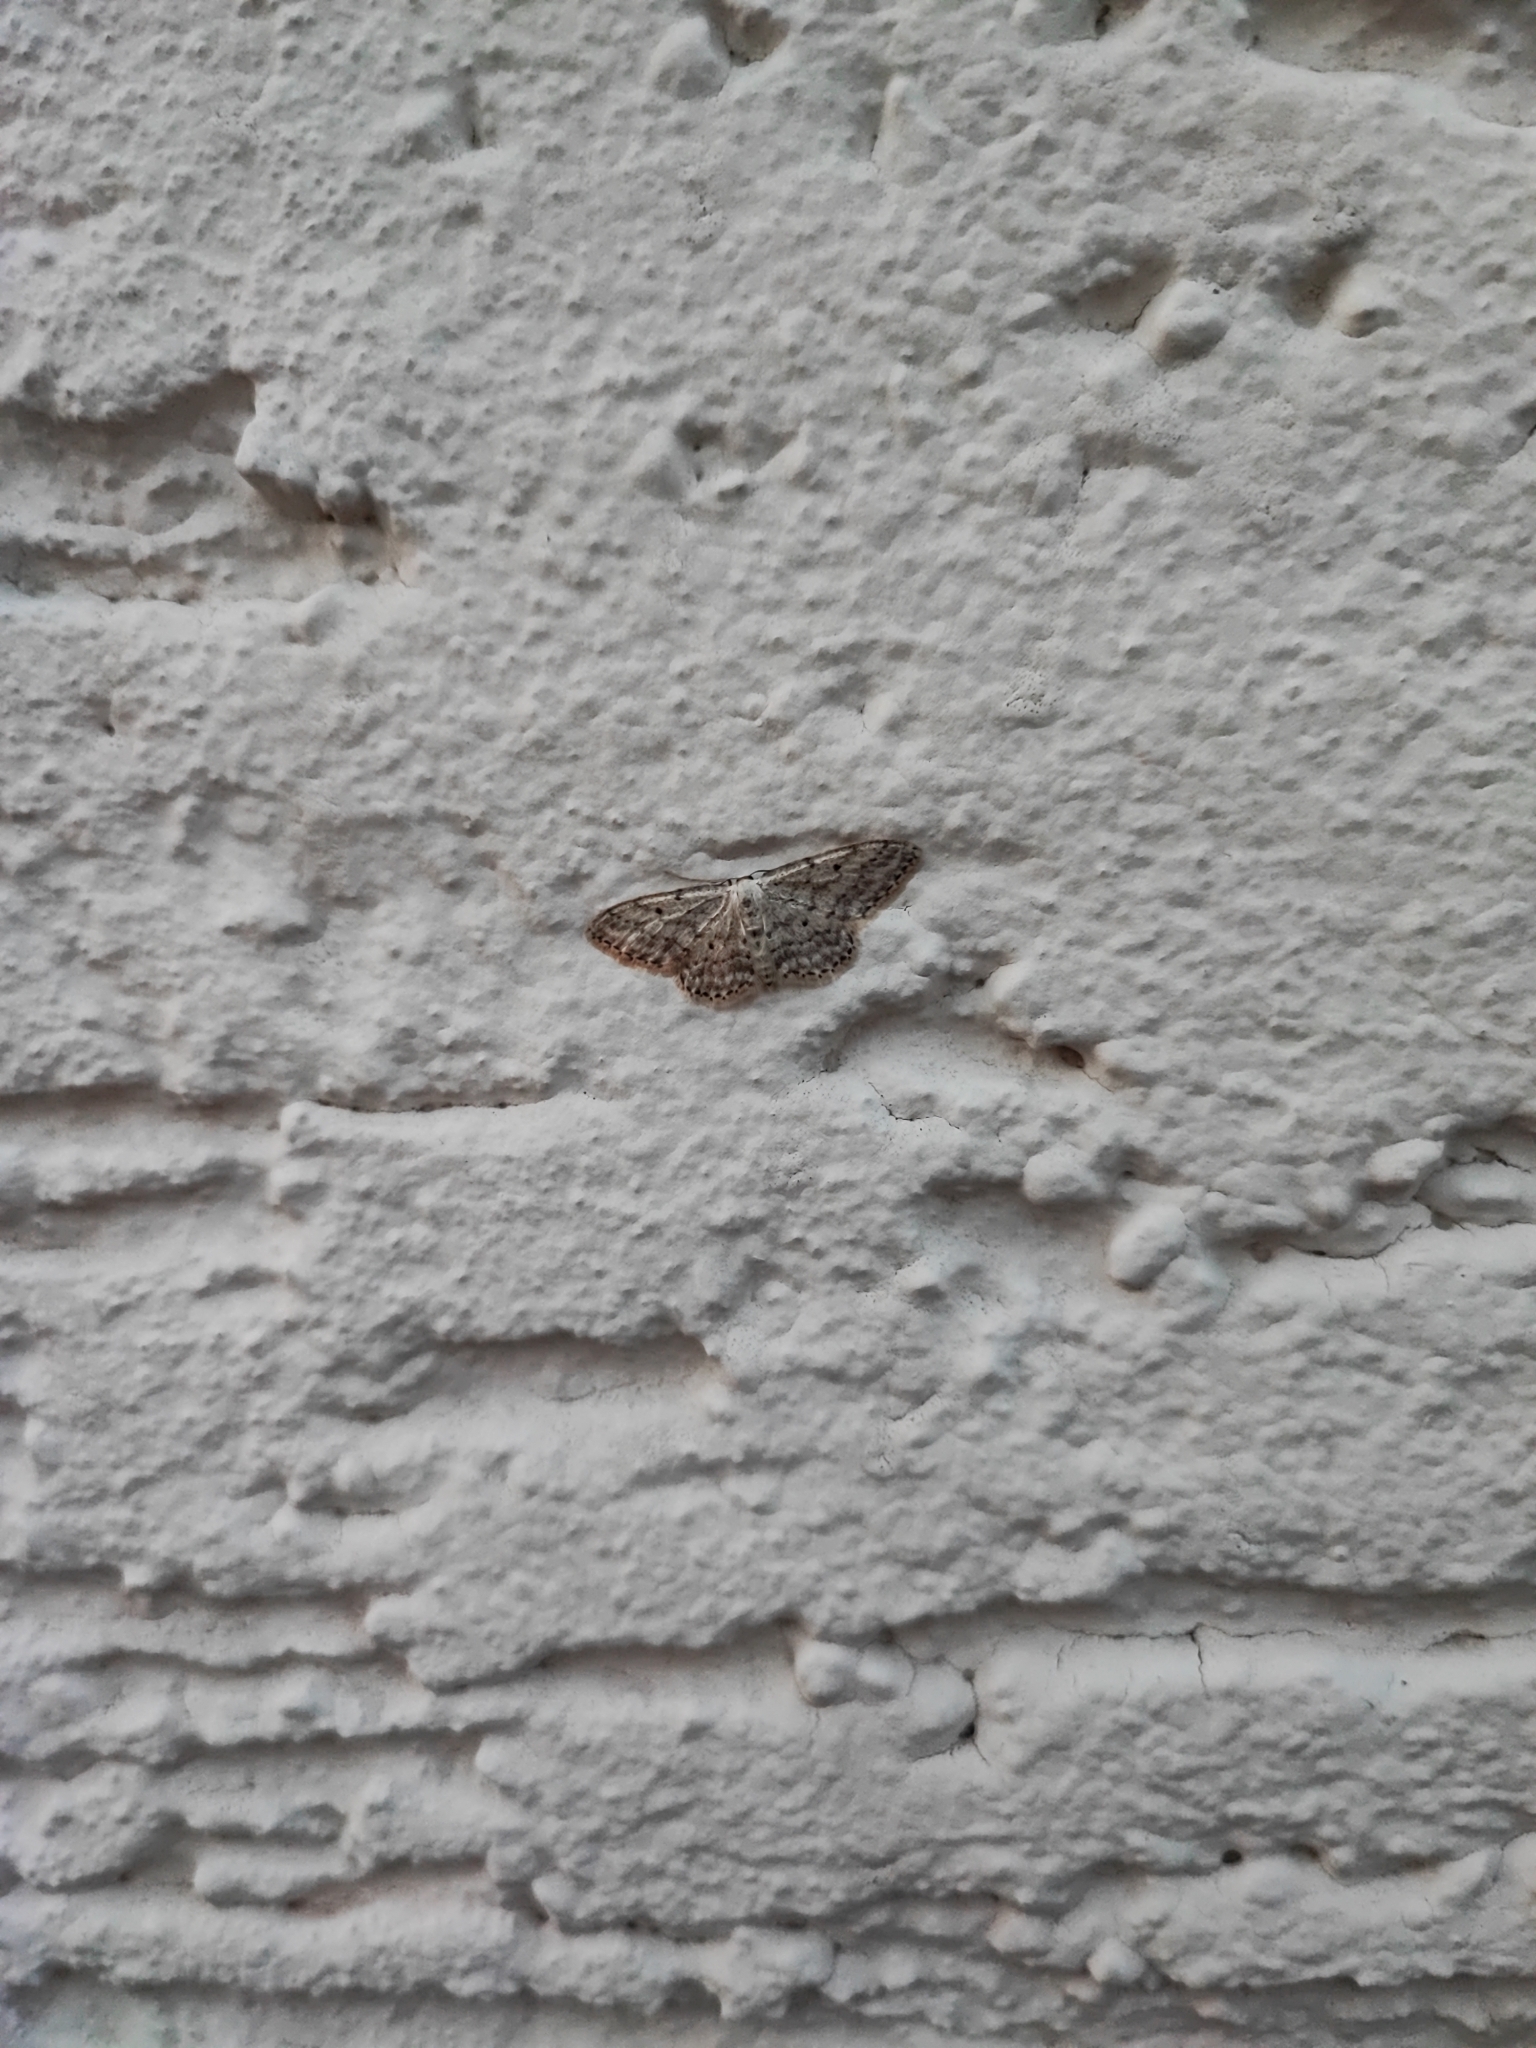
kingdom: Animalia
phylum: Arthropoda
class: Insecta
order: Lepidoptera
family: Geometridae
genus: Idaea
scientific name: Idaea seriata
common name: Small dusty wave
